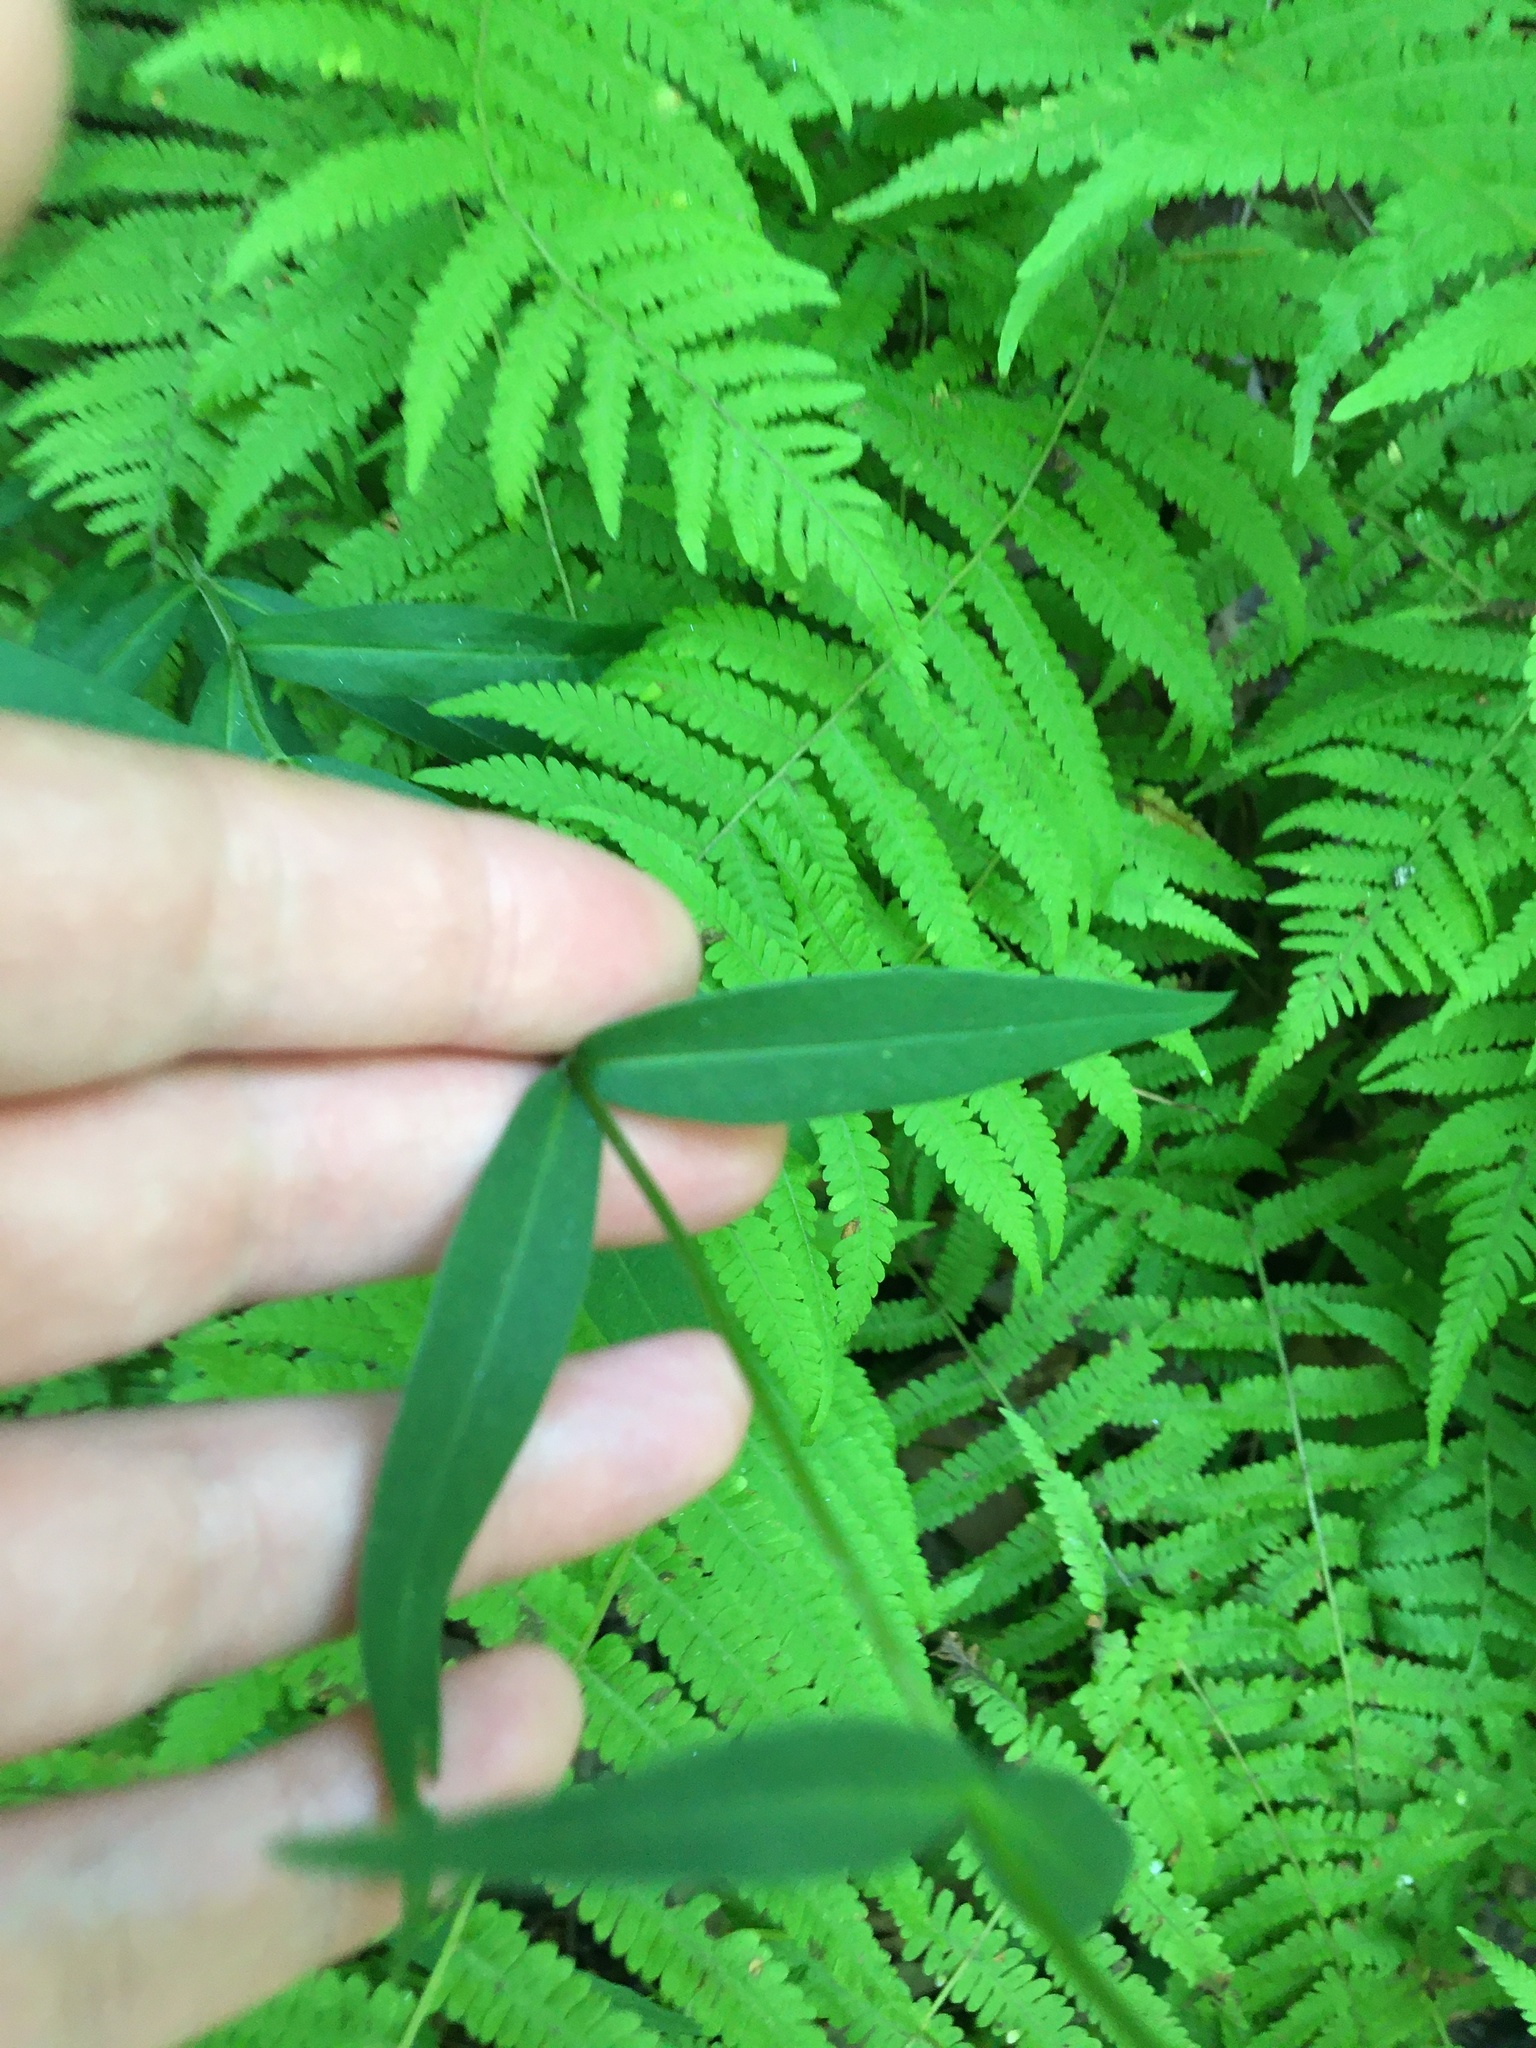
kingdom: Plantae
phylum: Tracheophyta
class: Magnoliopsida
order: Ericales
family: Polemoniaceae
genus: Phlox
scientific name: Phlox carolina
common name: Thick-leaf phlox
